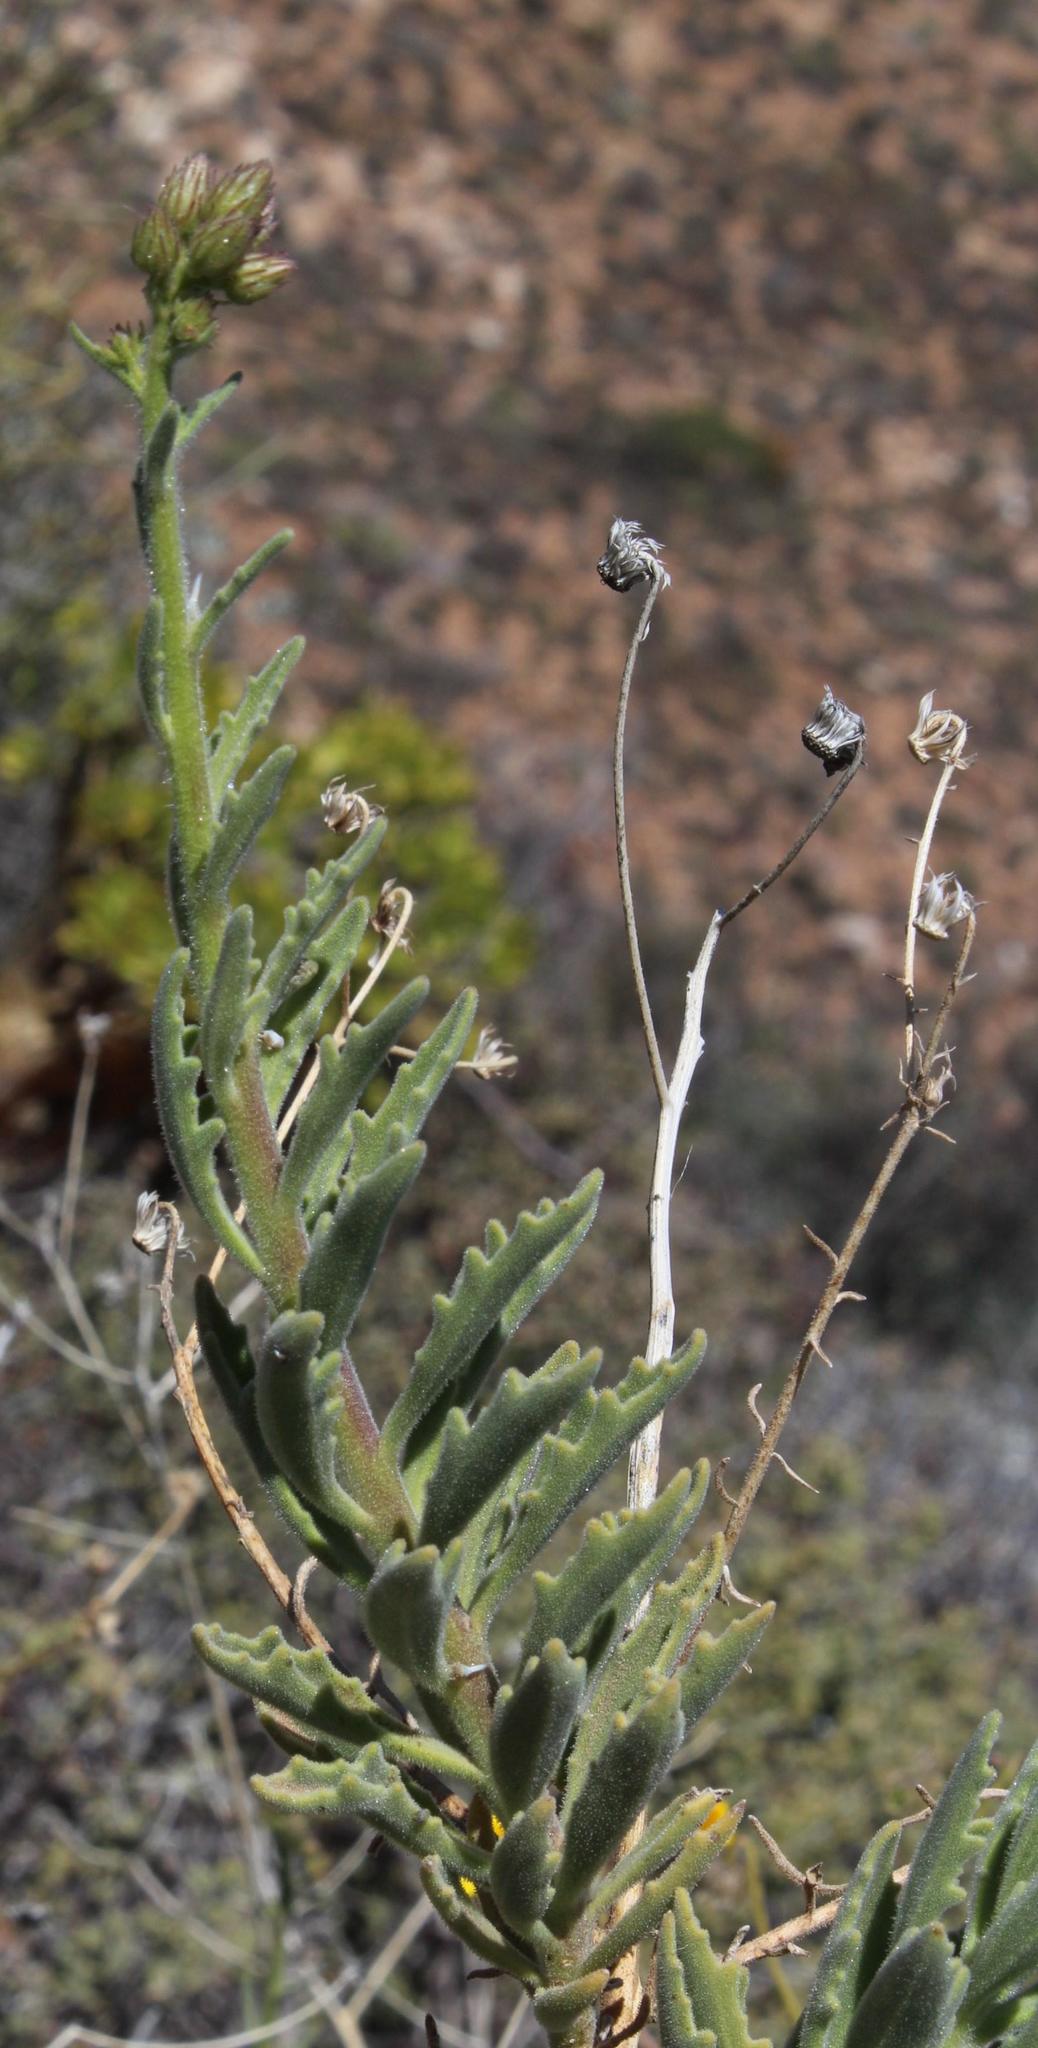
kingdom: Plantae
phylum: Tracheophyta
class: Magnoliopsida
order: Asterales
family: Asteraceae
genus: Osteospermum
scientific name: Osteospermum microcarpum
